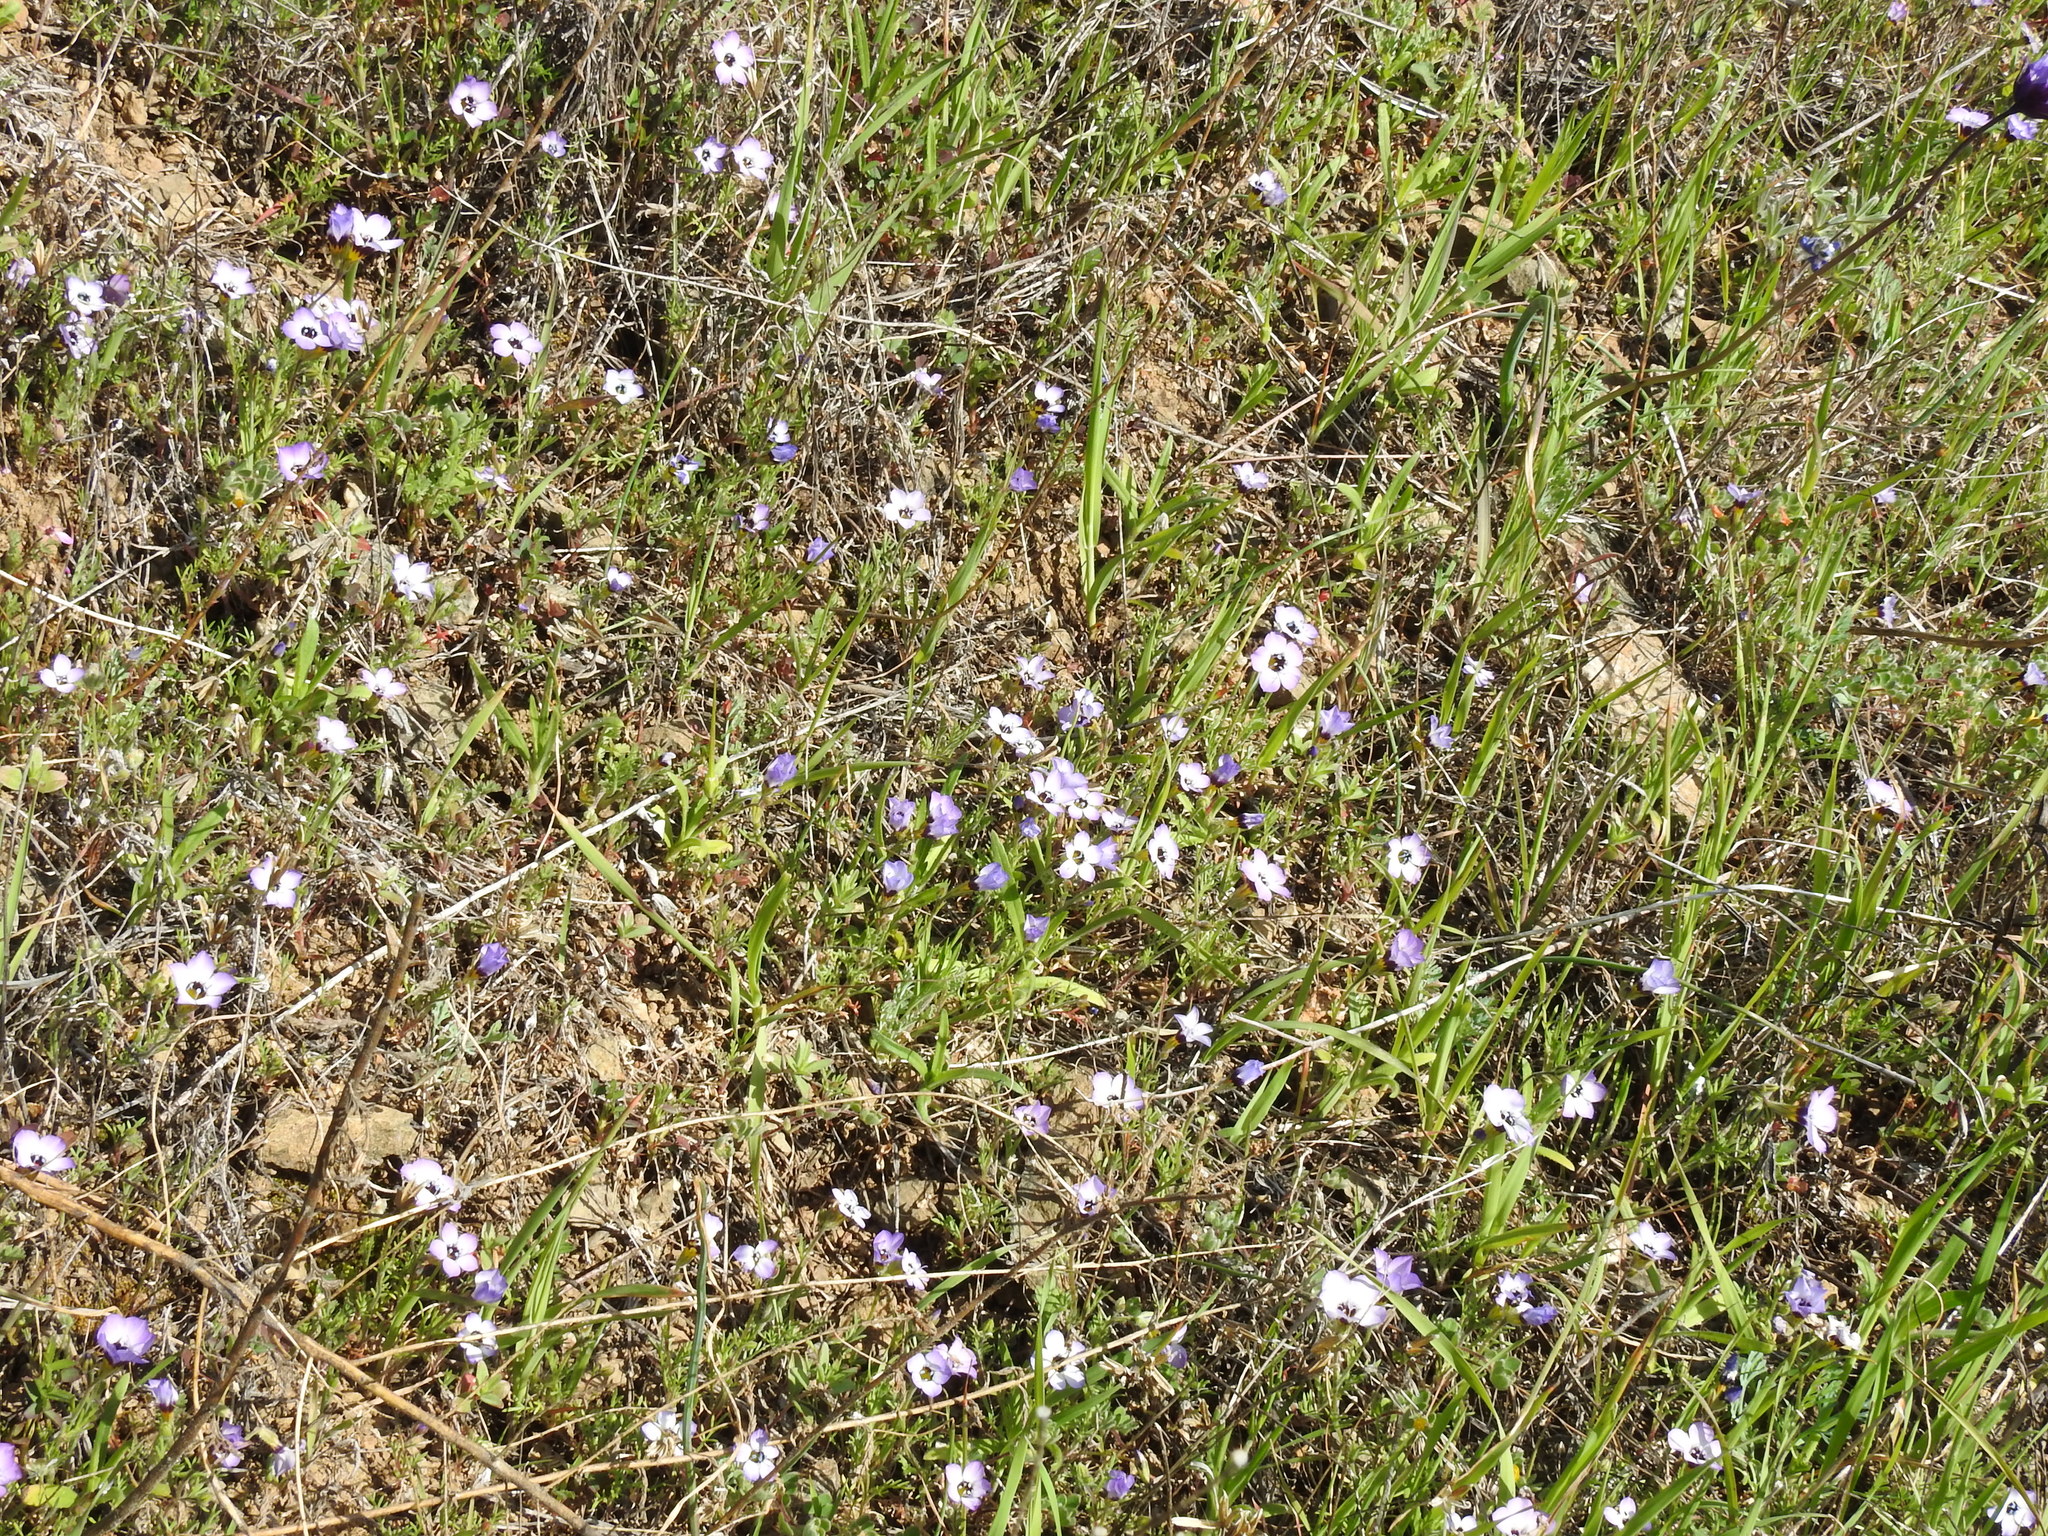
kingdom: Plantae
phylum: Tracheophyta
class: Magnoliopsida
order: Ericales
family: Polemoniaceae
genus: Gilia
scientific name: Gilia tricolor
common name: Bird's-eyes
